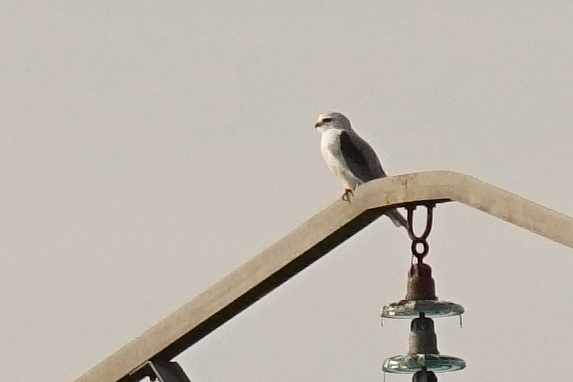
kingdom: Animalia
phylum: Chordata
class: Aves
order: Accipitriformes
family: Accipitridae
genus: Elanus
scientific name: Elanus caeruleus
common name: Black-winged kite
